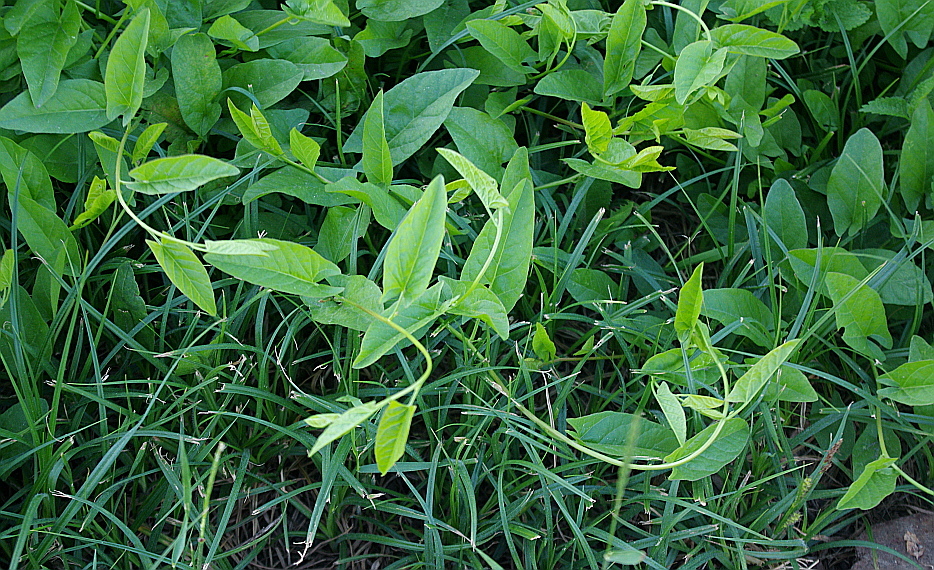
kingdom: Plantae
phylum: Tracheophyta
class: Magnoliopsida
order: Solanales
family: Convolvulaceae
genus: Convolvulus
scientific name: Convolvulus arvensis
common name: Field bindweed
